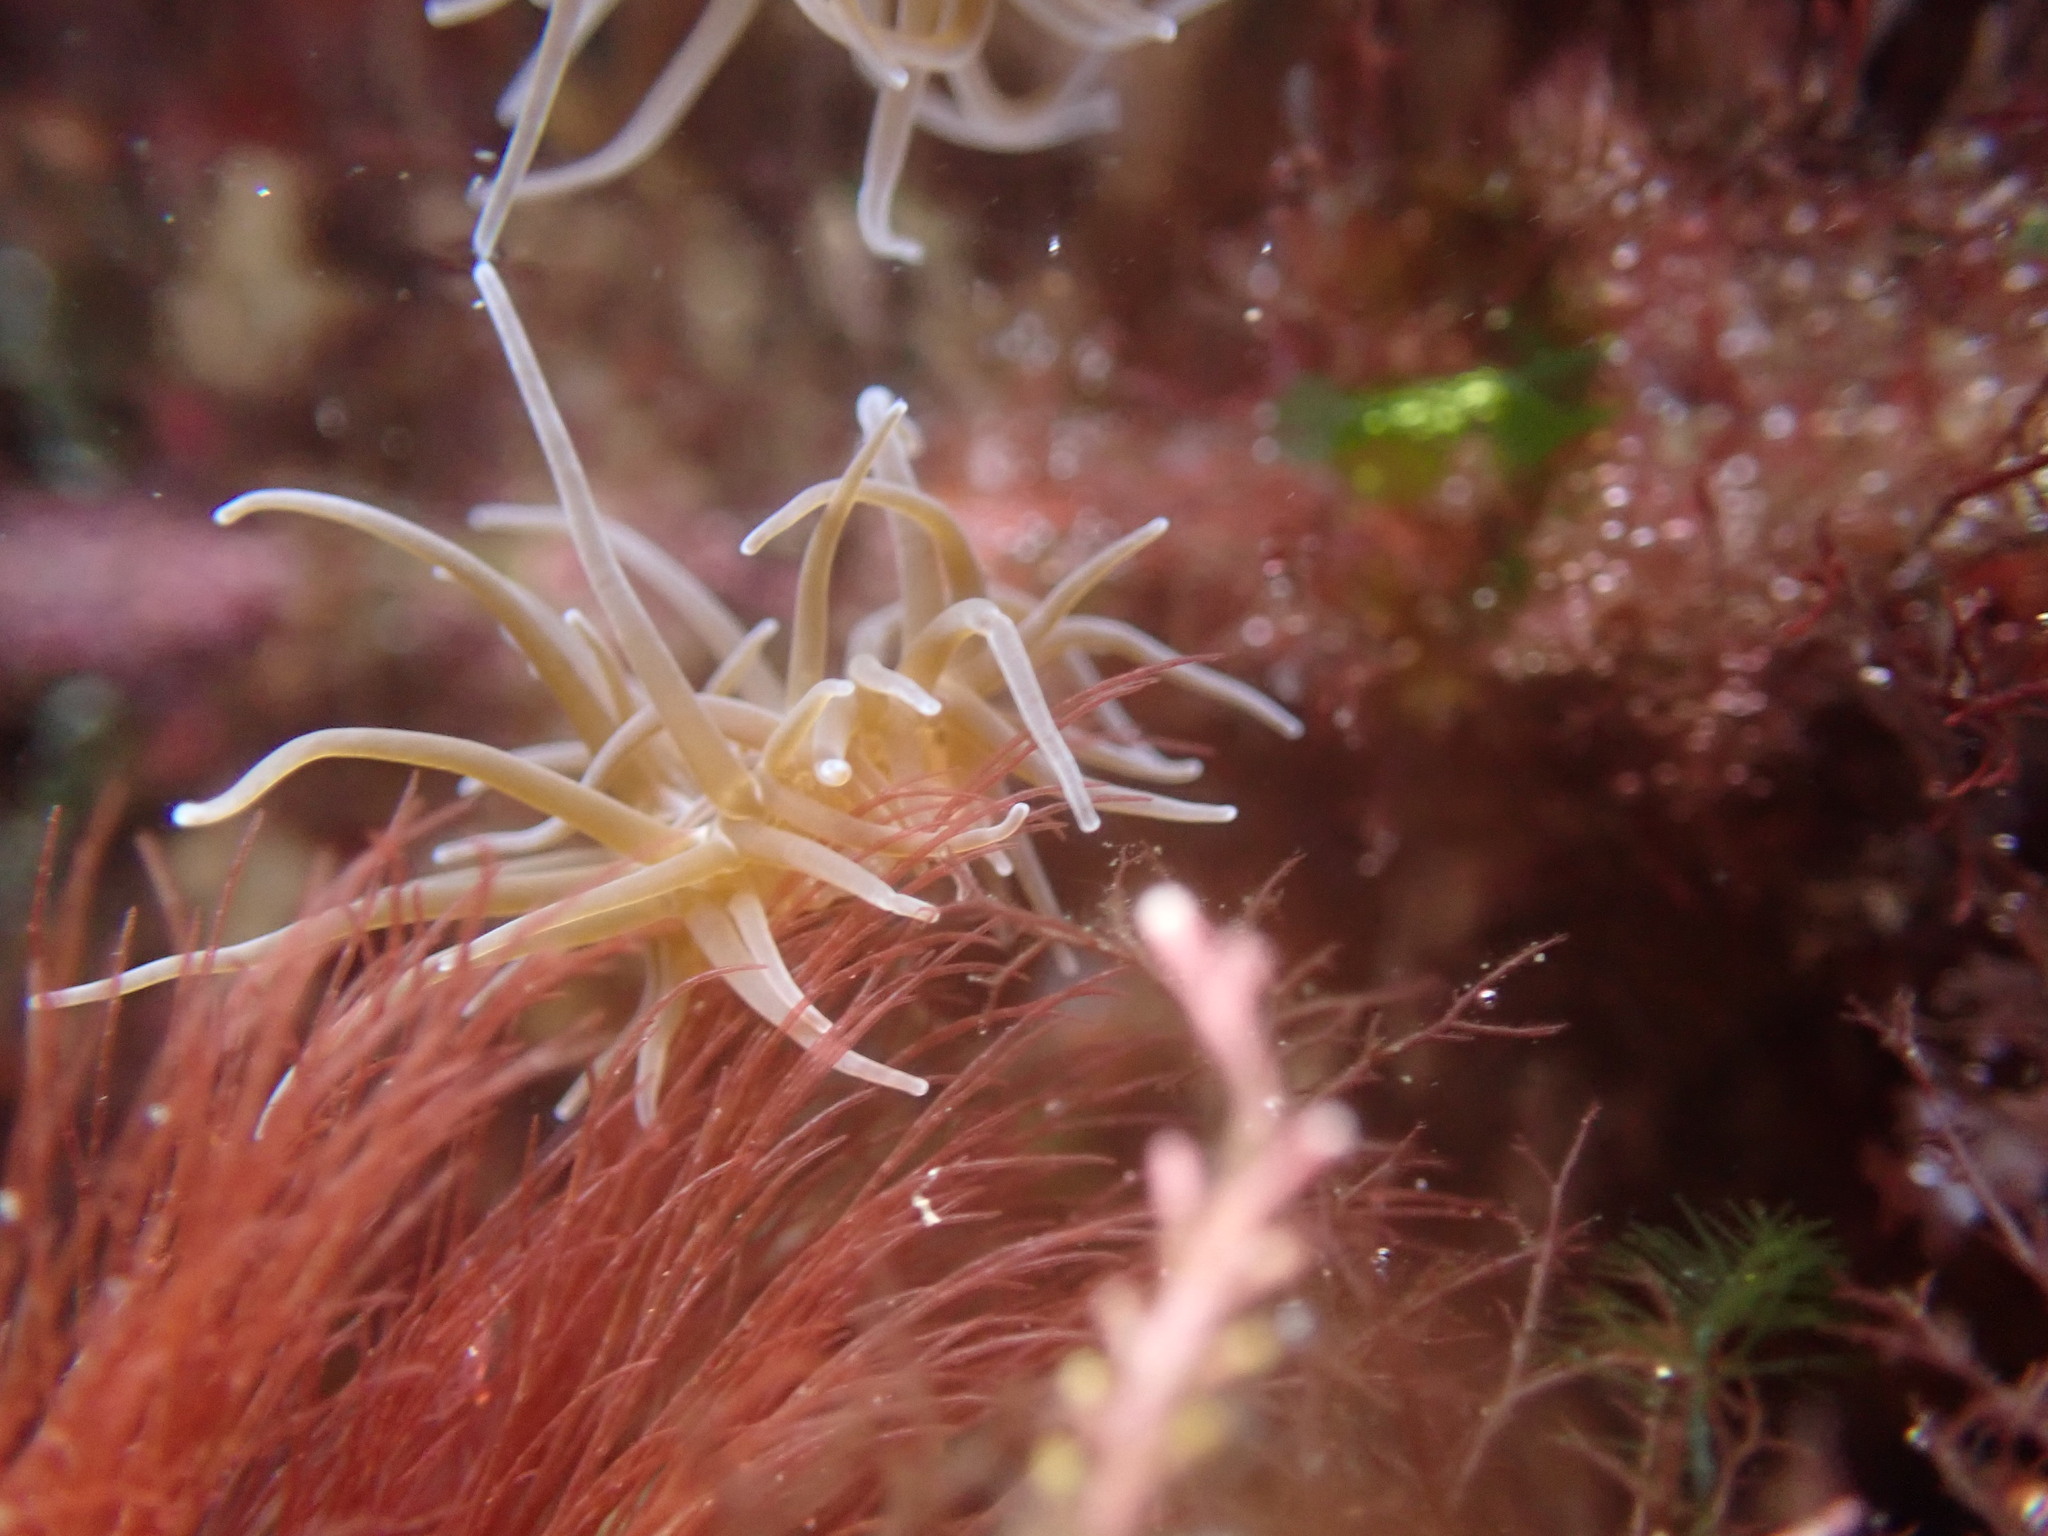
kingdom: Animalia
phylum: Cnidaria
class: Anthozoa
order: Actiniaria
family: Actiniidae
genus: Anemonia
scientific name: Anemonia viridis
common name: Snakelocks anemone
